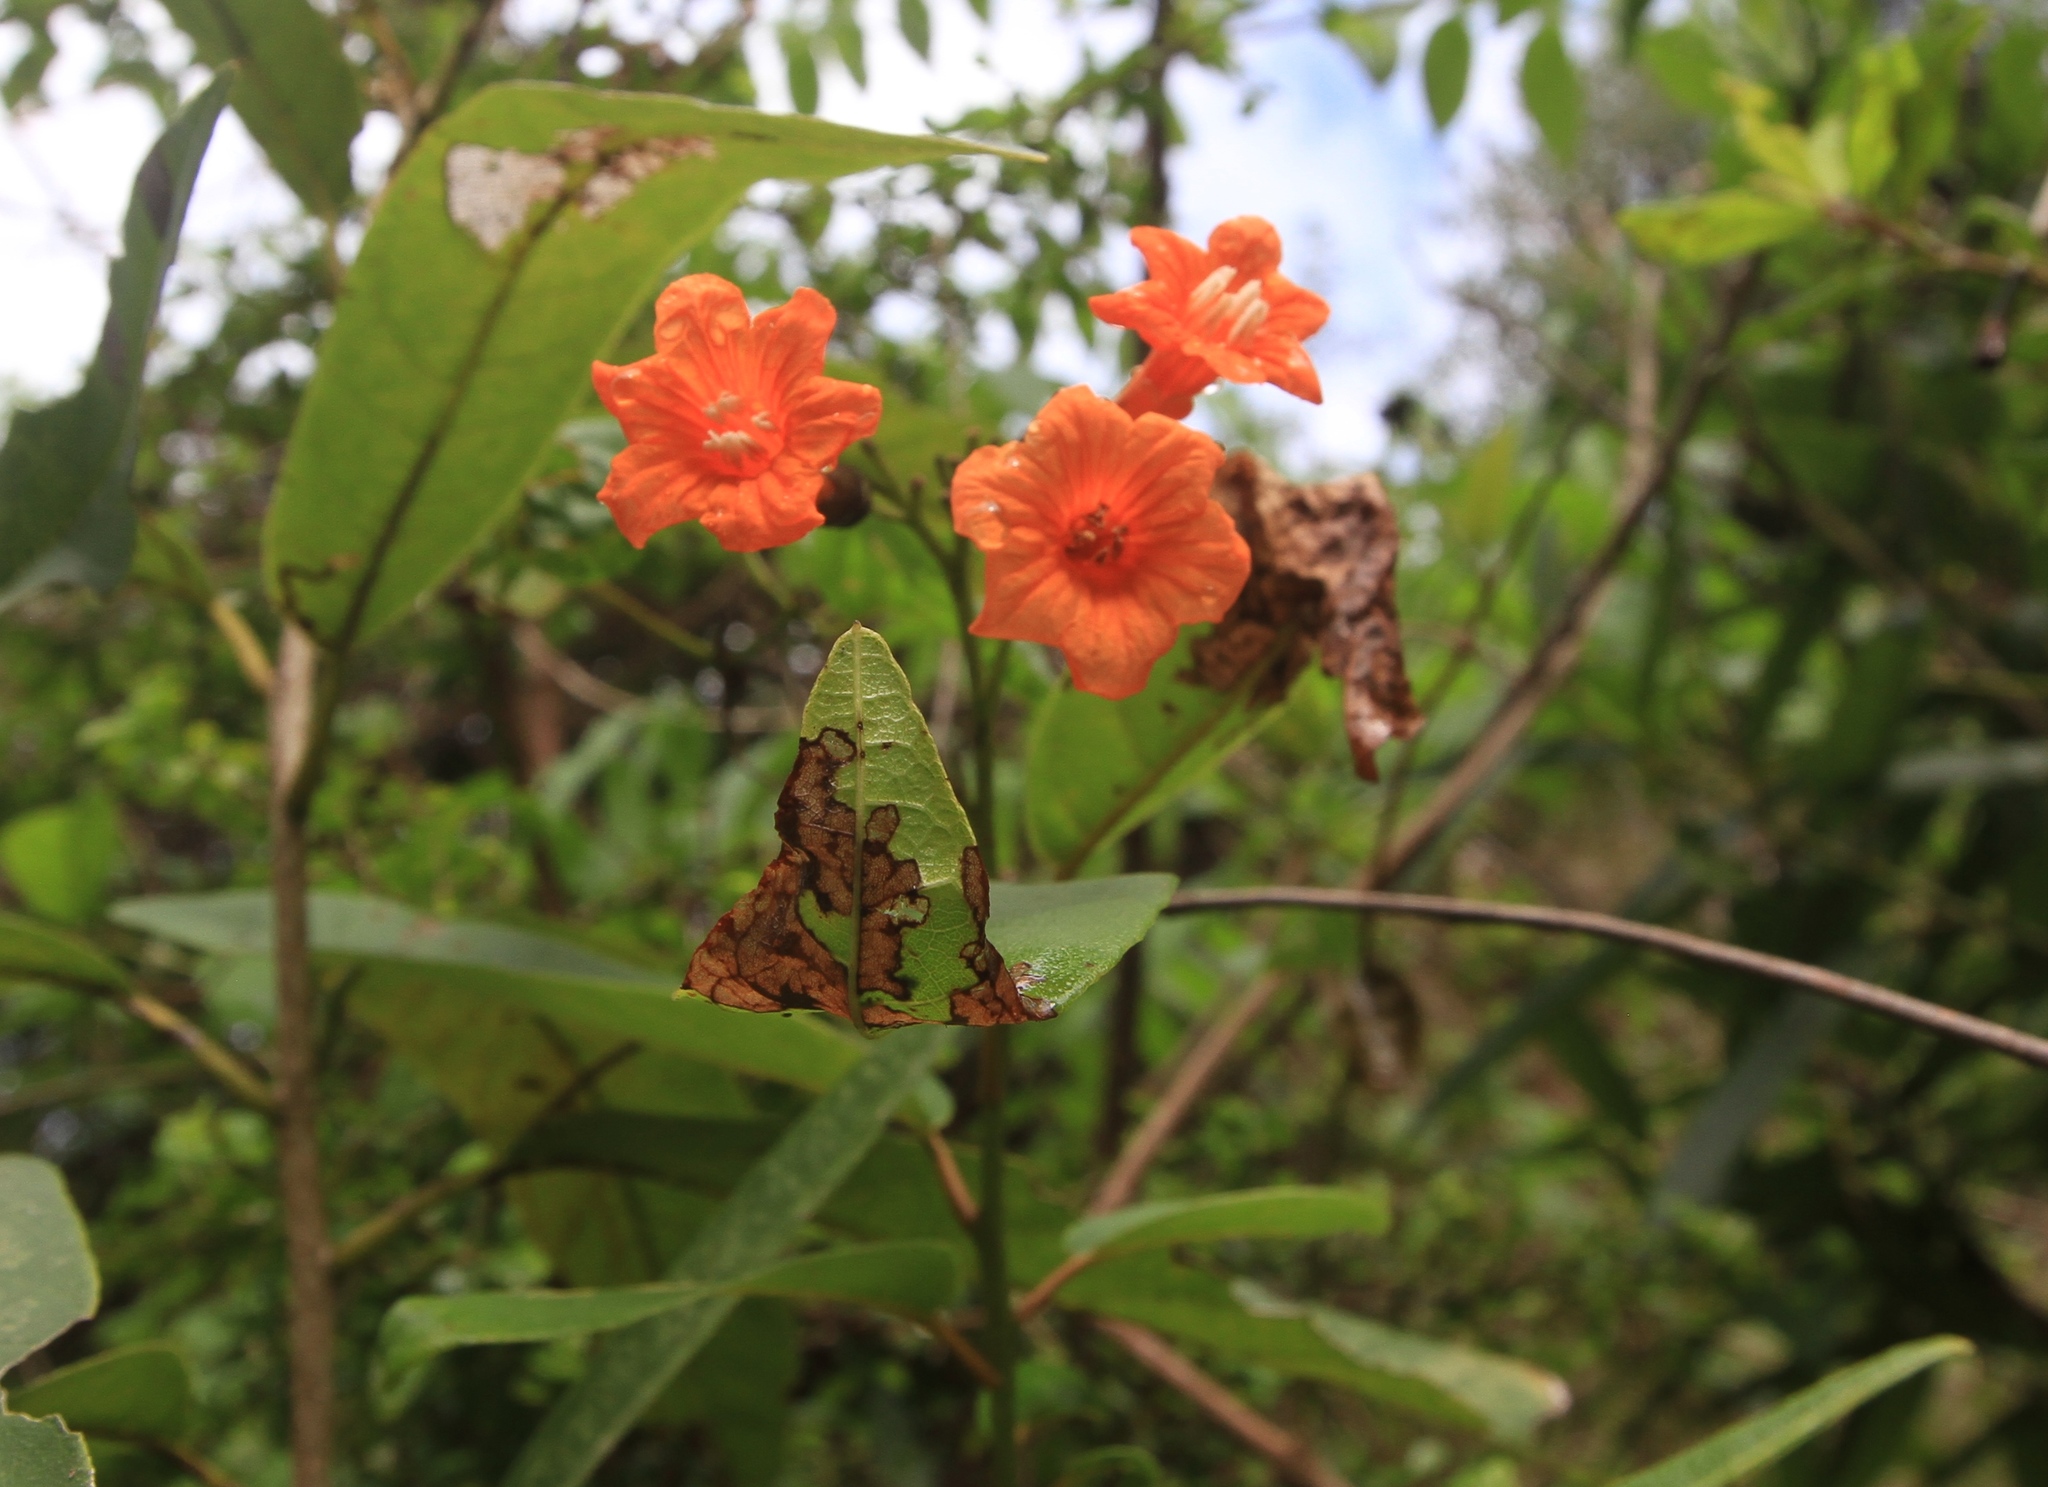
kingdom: Plantae
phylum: Tracheophyta
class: Magnoliopsida
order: Boraginales
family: Cordiaceae
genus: Cordia
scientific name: Cordia fitchii
